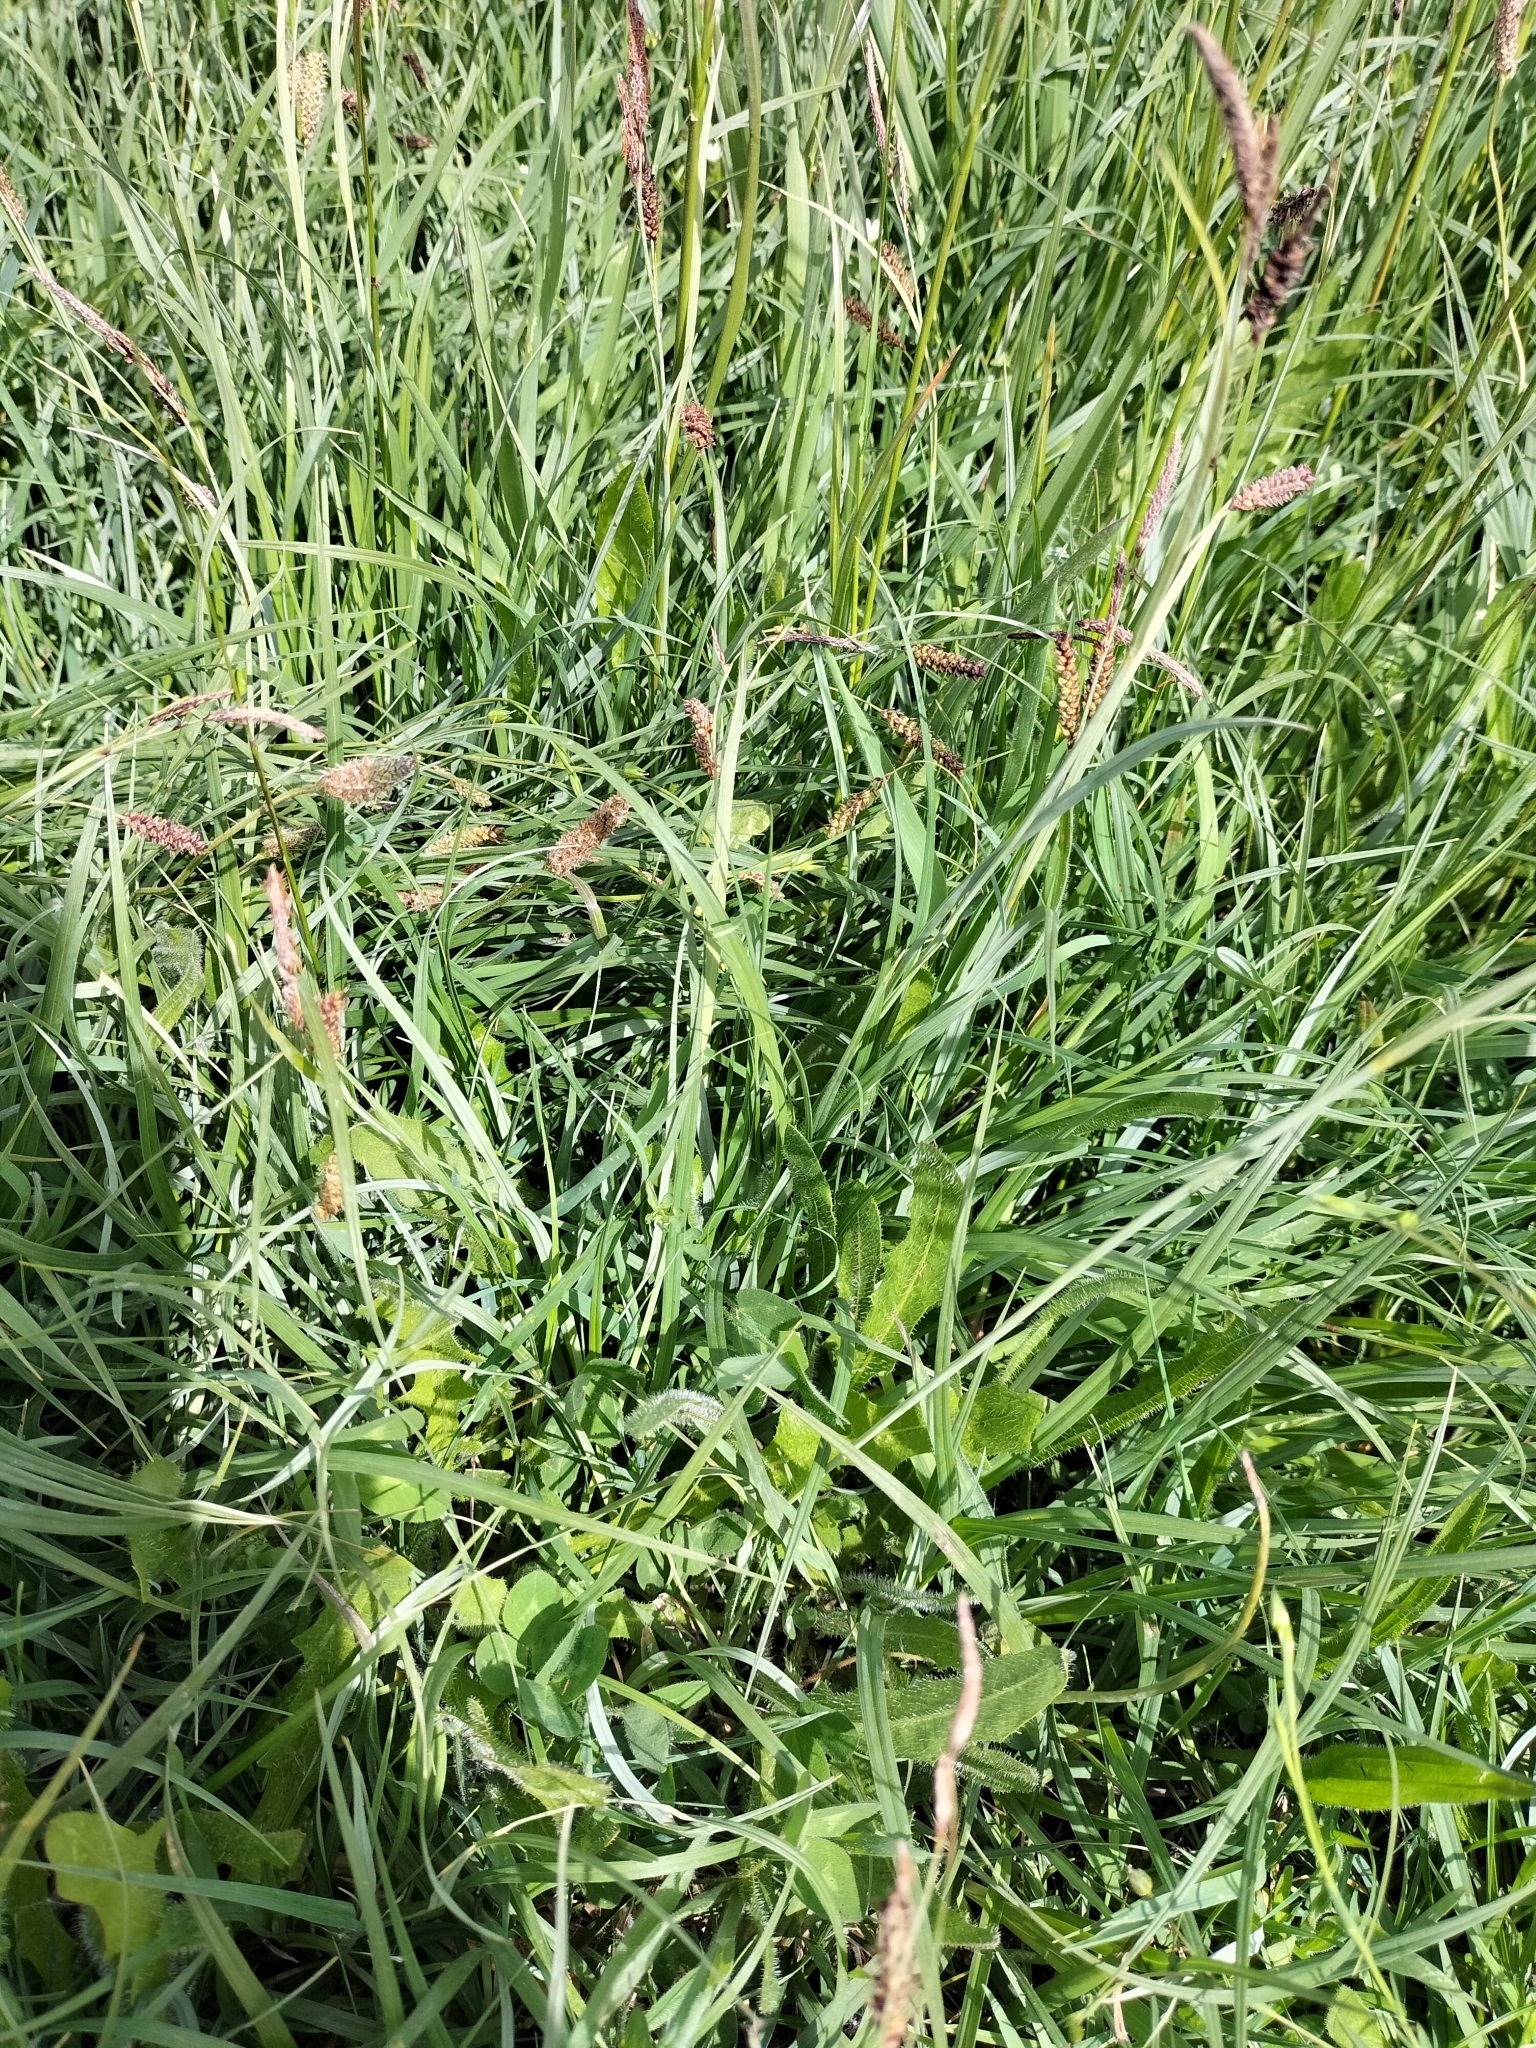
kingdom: Plantae
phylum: Tracheophyta
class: Liliopsida
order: Poales
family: Cyperaceae
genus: Carex
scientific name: Carex flacca
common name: Glaucous sedge
